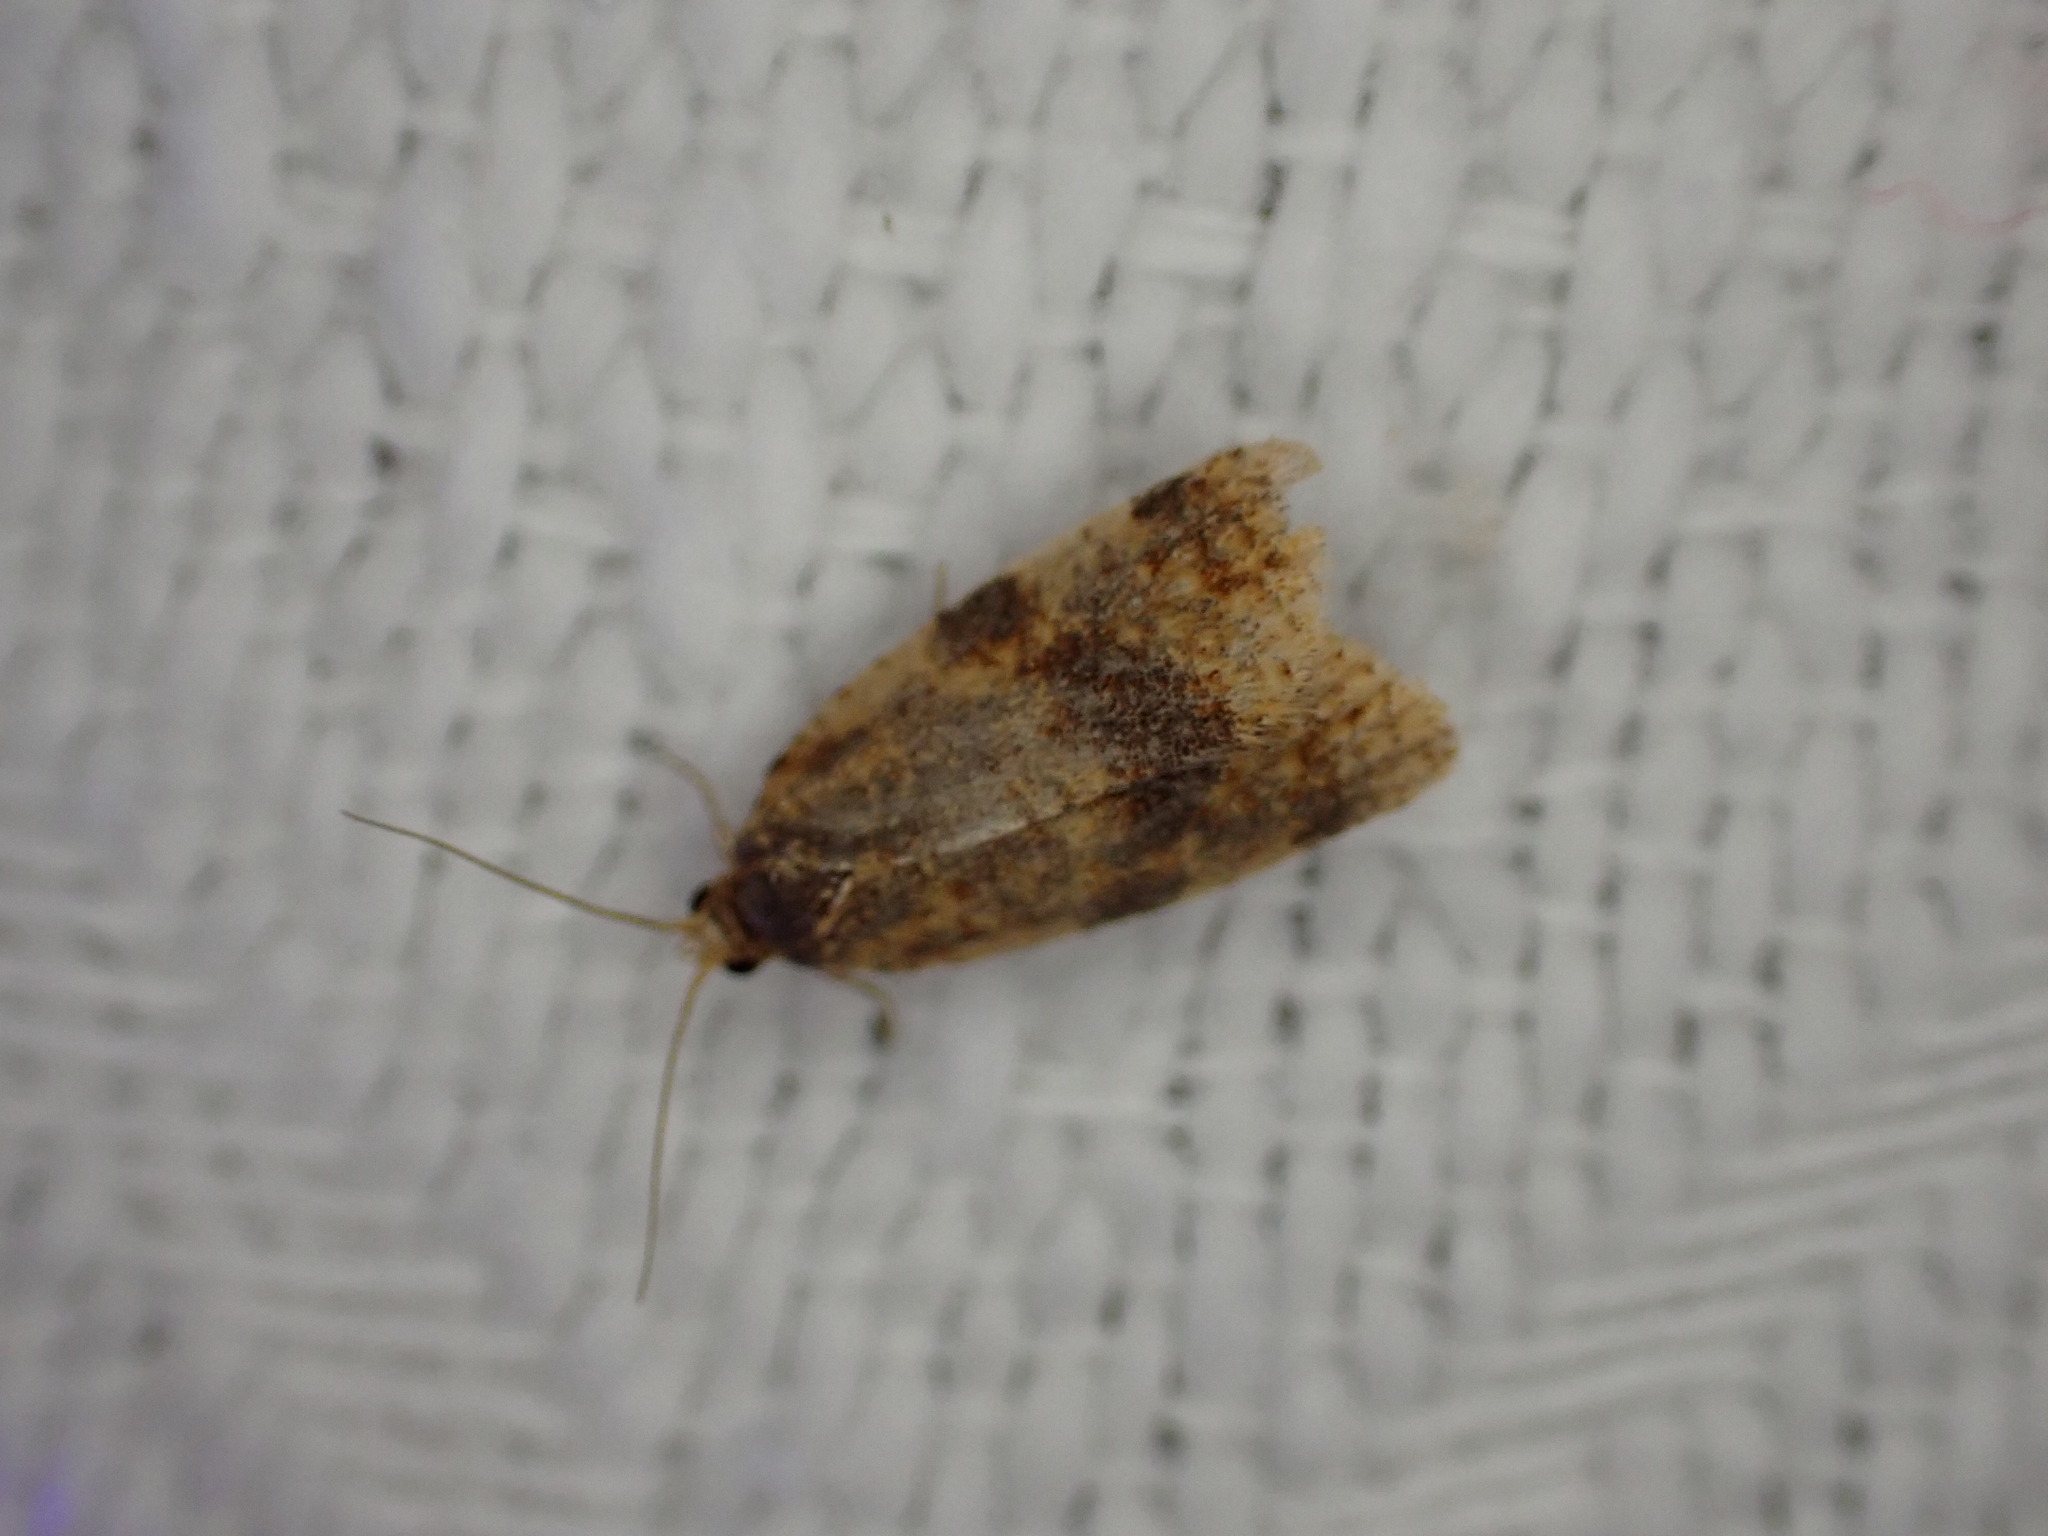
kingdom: Animalia
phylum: Arthropoda
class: Insecta
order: Lepidoptera
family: Tortricidae
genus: Epagoge
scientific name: Epagoge grotiana
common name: Brown-barred twist
